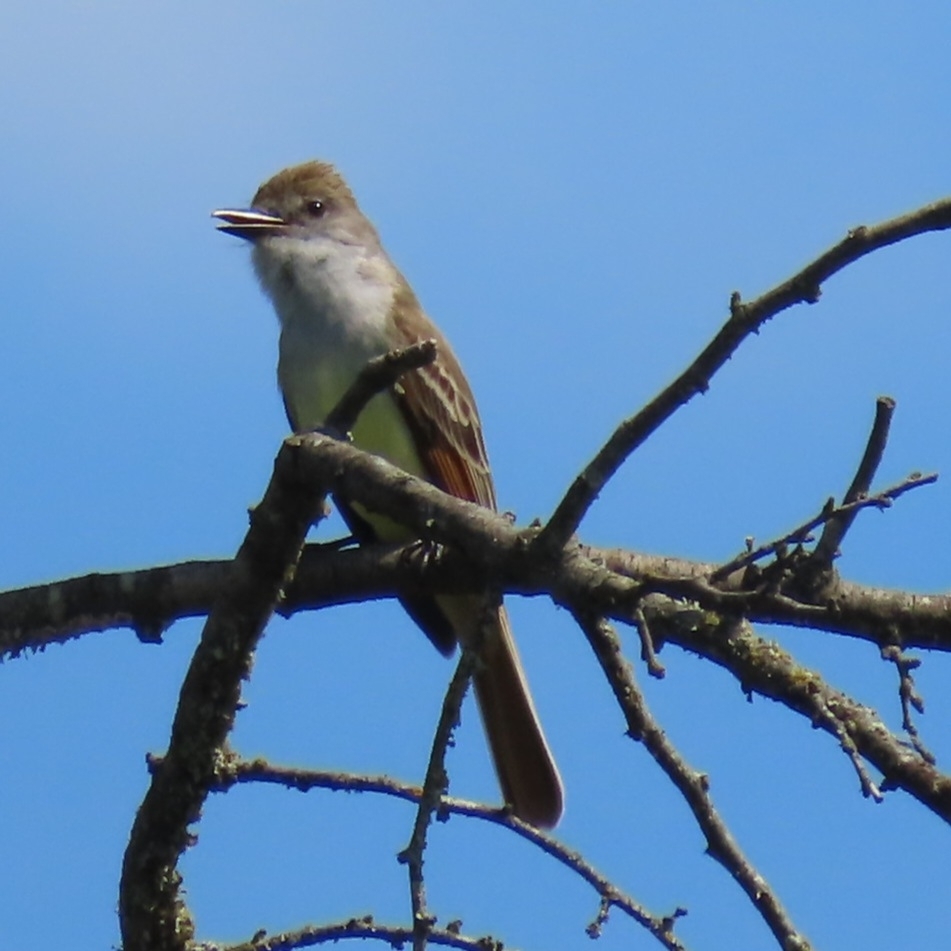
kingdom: Animalia
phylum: Chordata
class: Aves
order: Passeriformes
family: Tyrannidae
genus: Myiarchus
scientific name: Myiarchus cinerascens
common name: Ash-throated flycatcher
